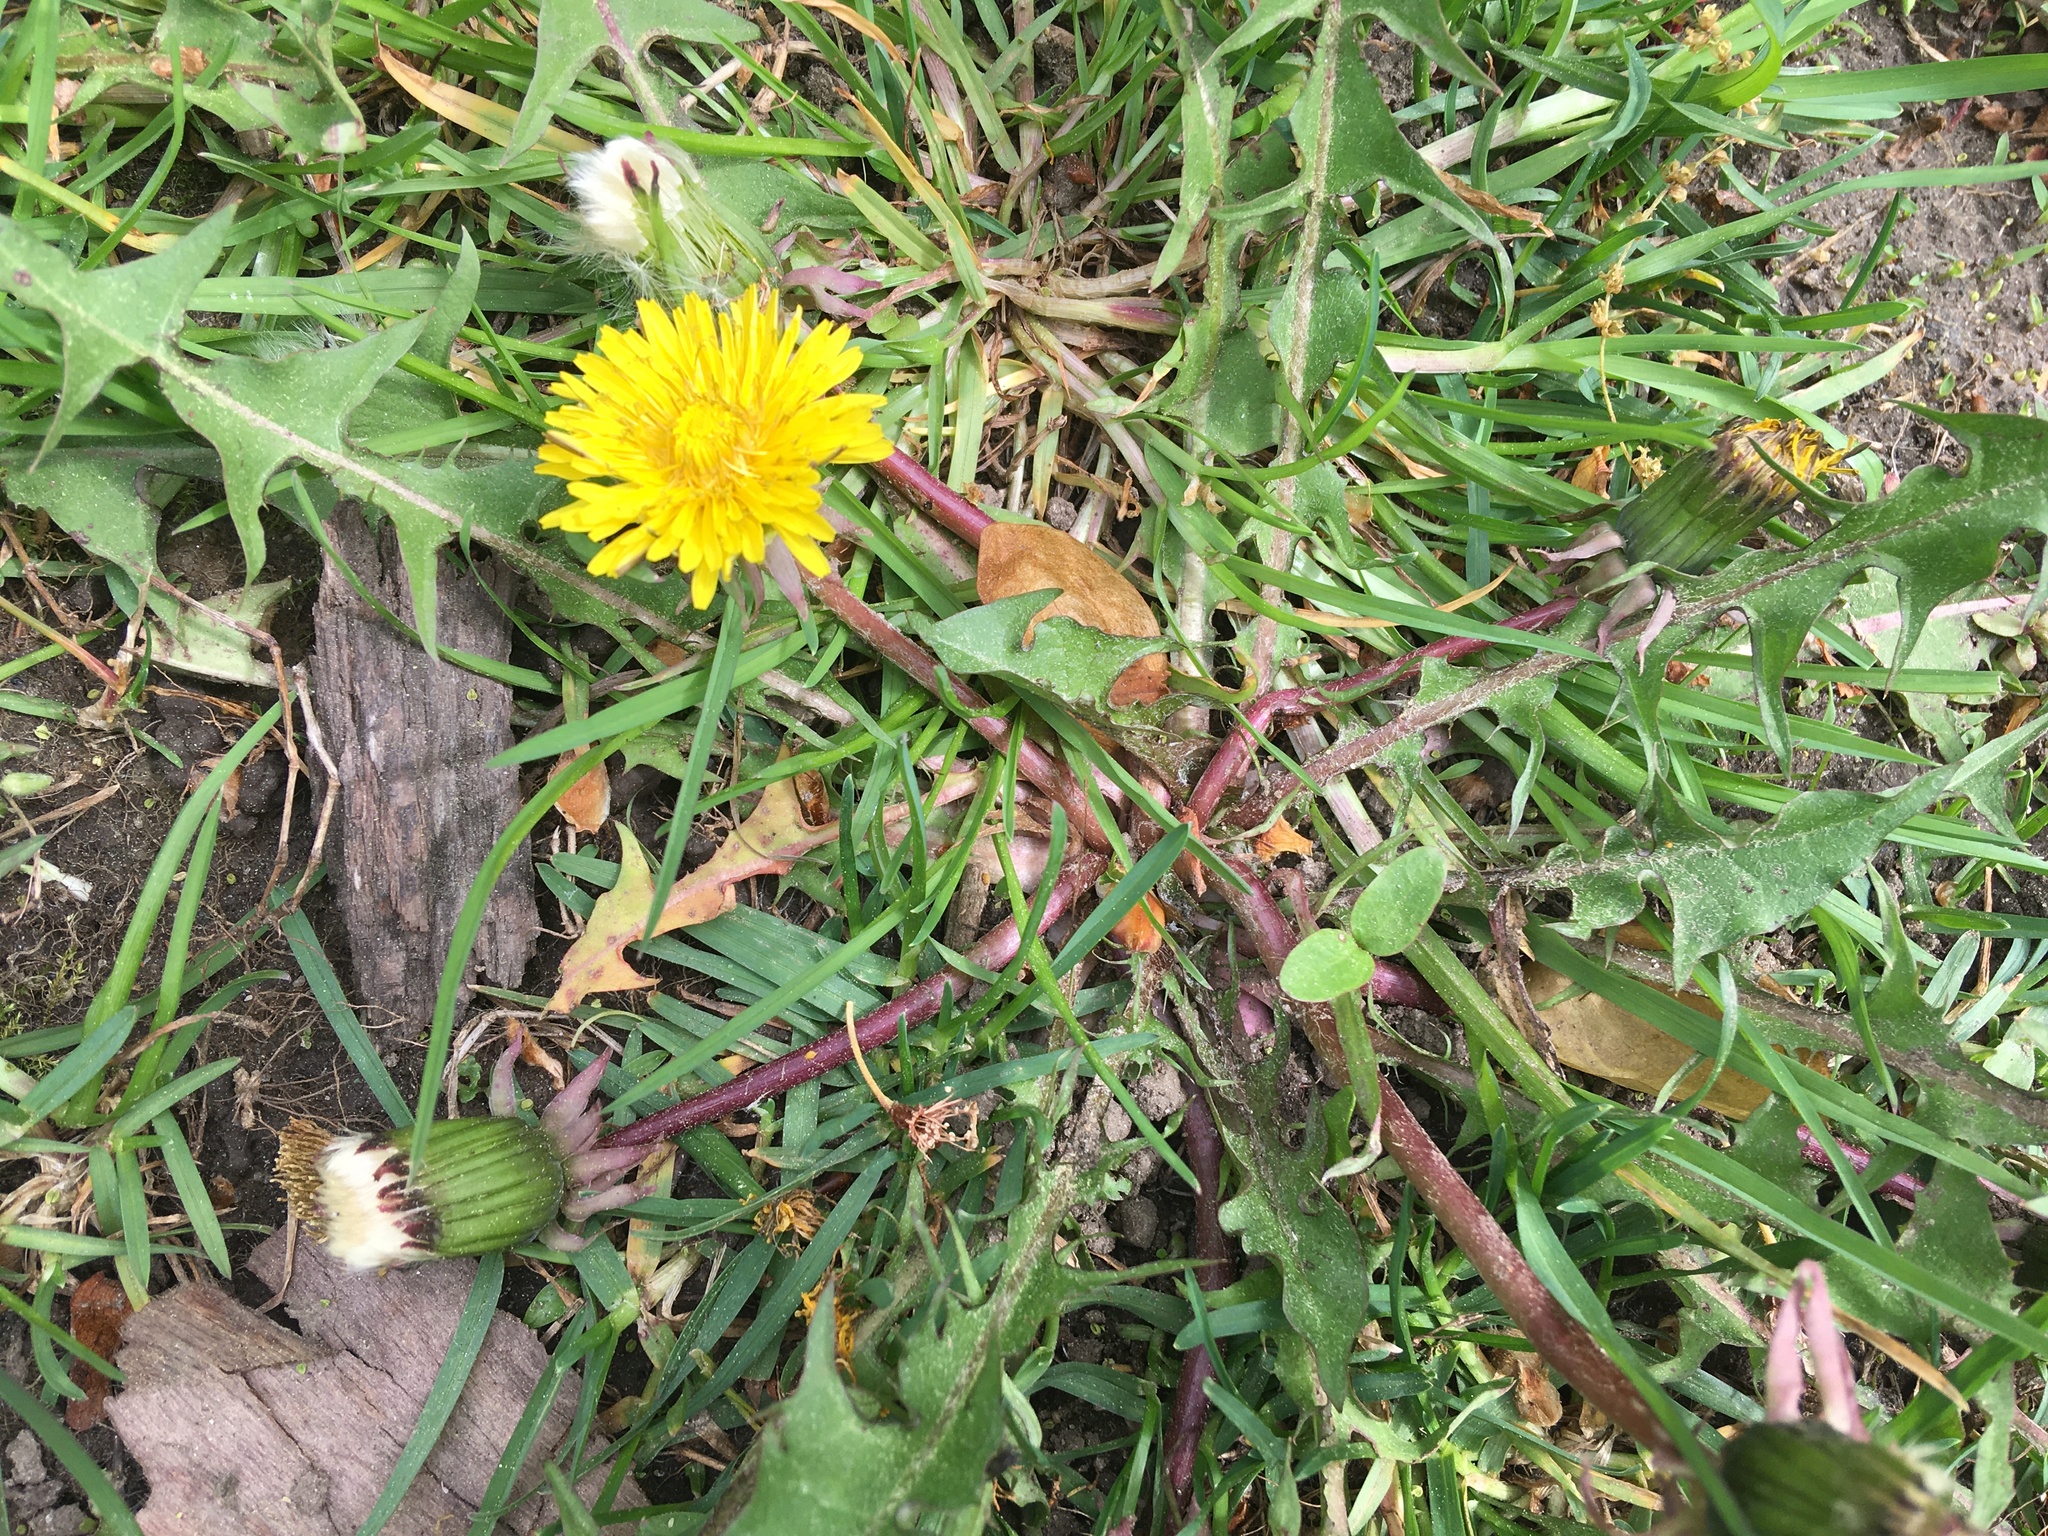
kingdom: Plantae
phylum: Tracheophyta
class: Magnoliopsida
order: Asterales
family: Asteraceae
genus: Taraxacum
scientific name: Taraxacum
